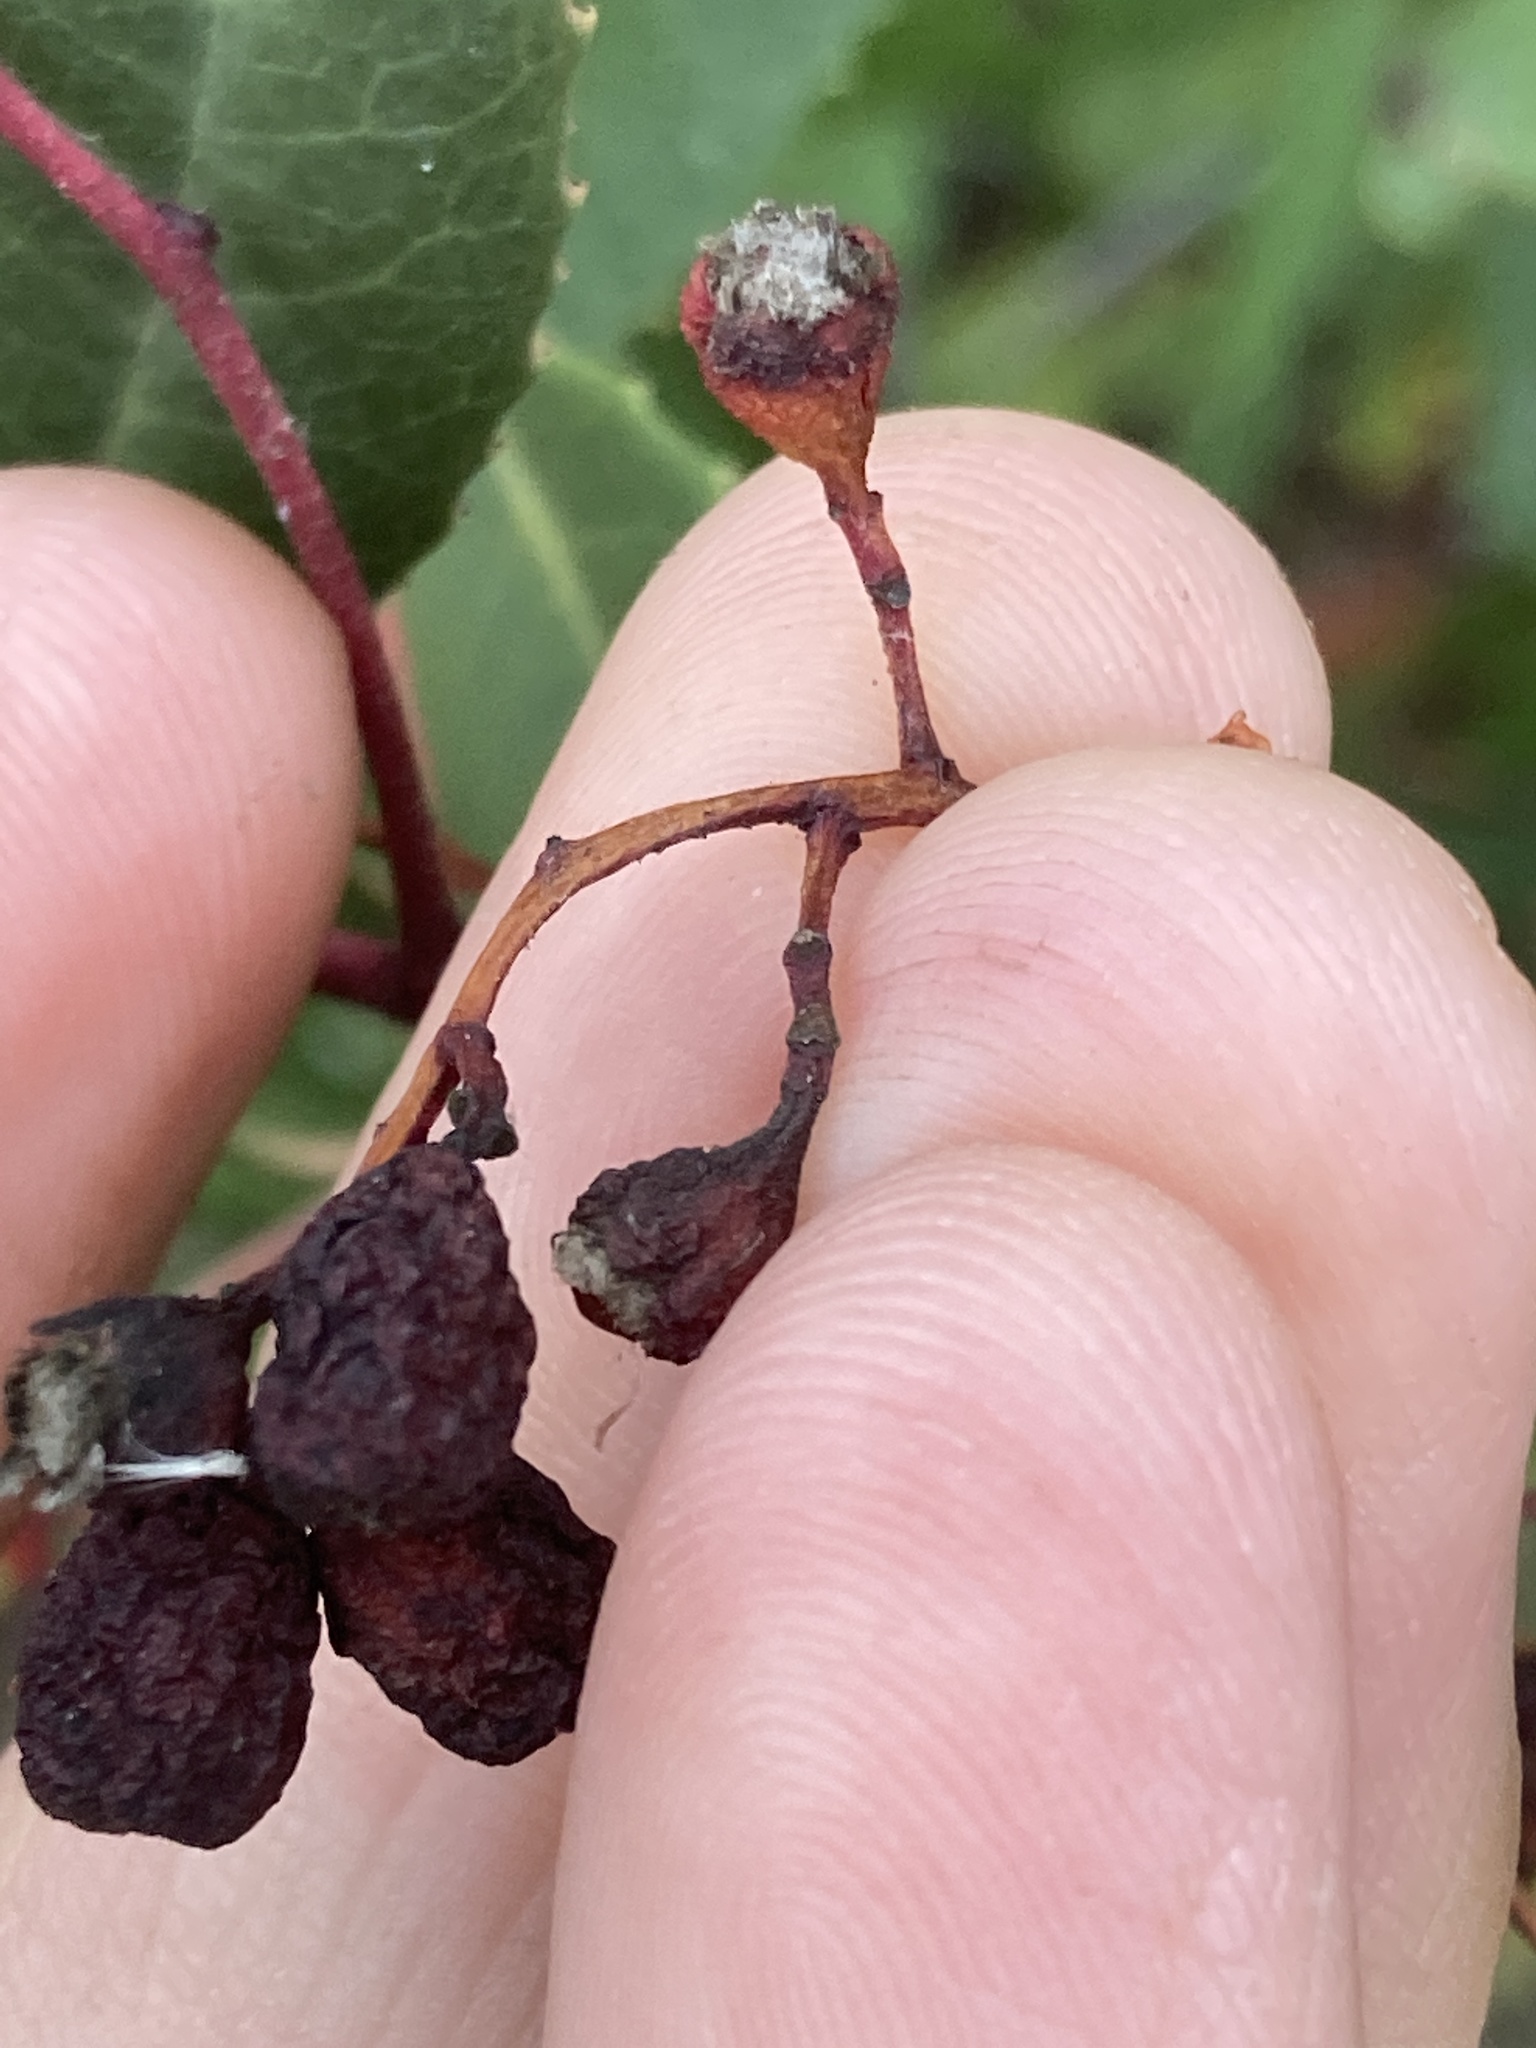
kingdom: Animalia
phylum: Arthropoda
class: Insecta
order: Diptera
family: Cecidomyiidae
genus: Asphondylia
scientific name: Asphondylia photiniae
